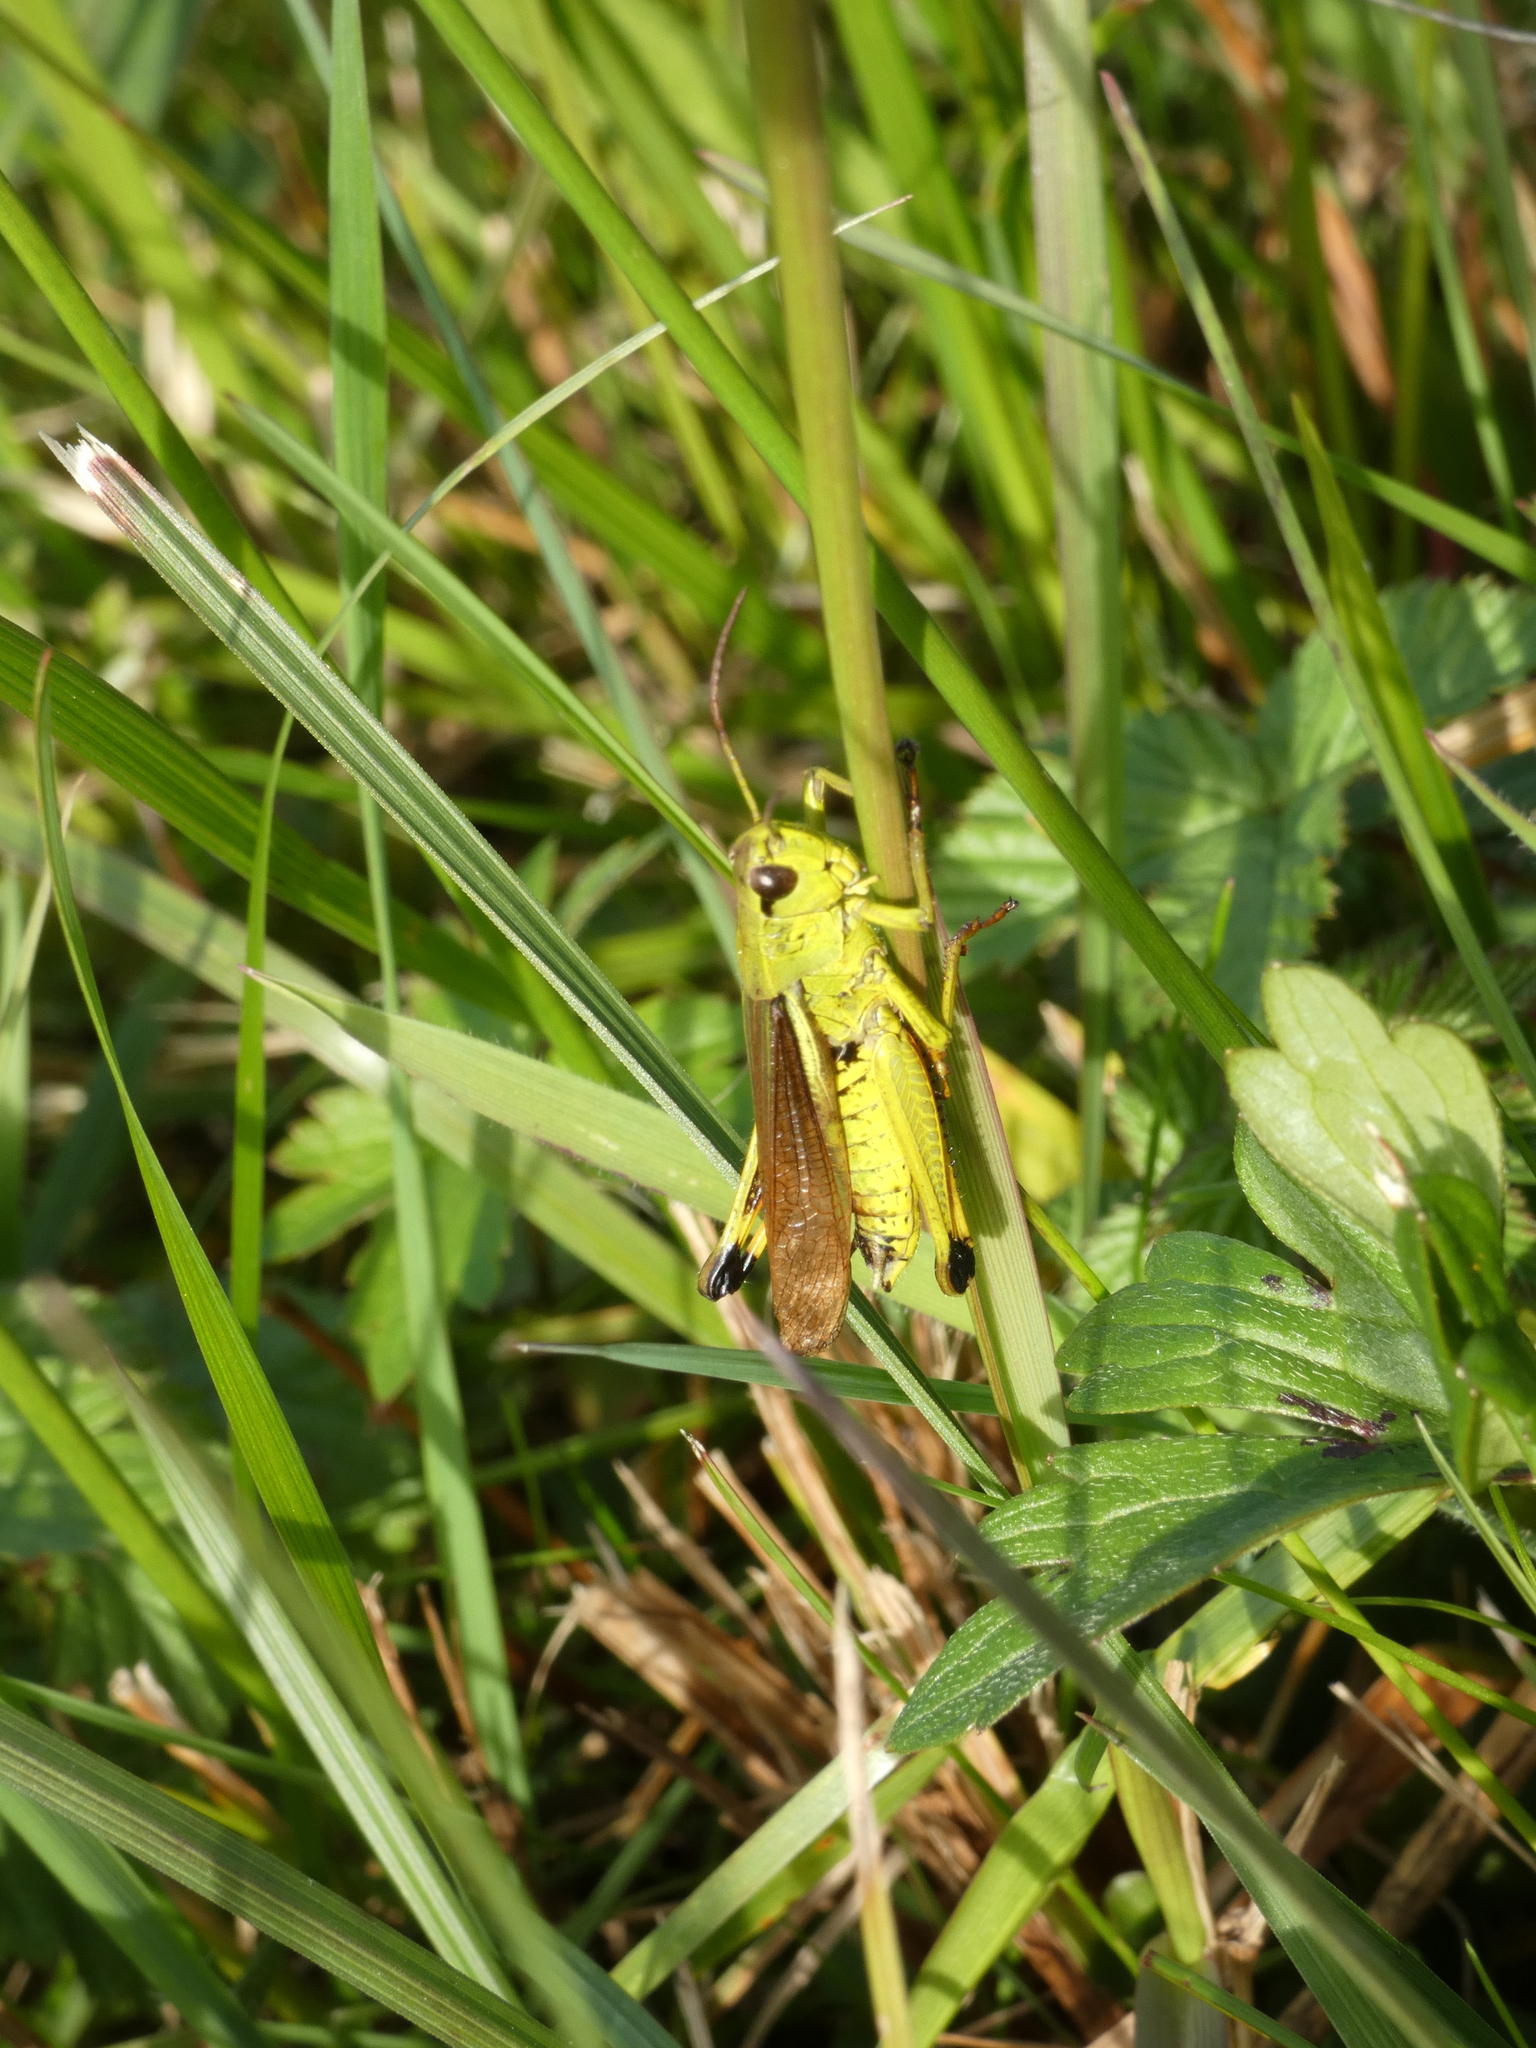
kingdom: Animalia
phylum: Arthropoda
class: Insecta
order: Orthoptera
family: Acrididae
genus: Stethophyma
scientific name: Stethophyma grossum
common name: Large marsh grasshopper
